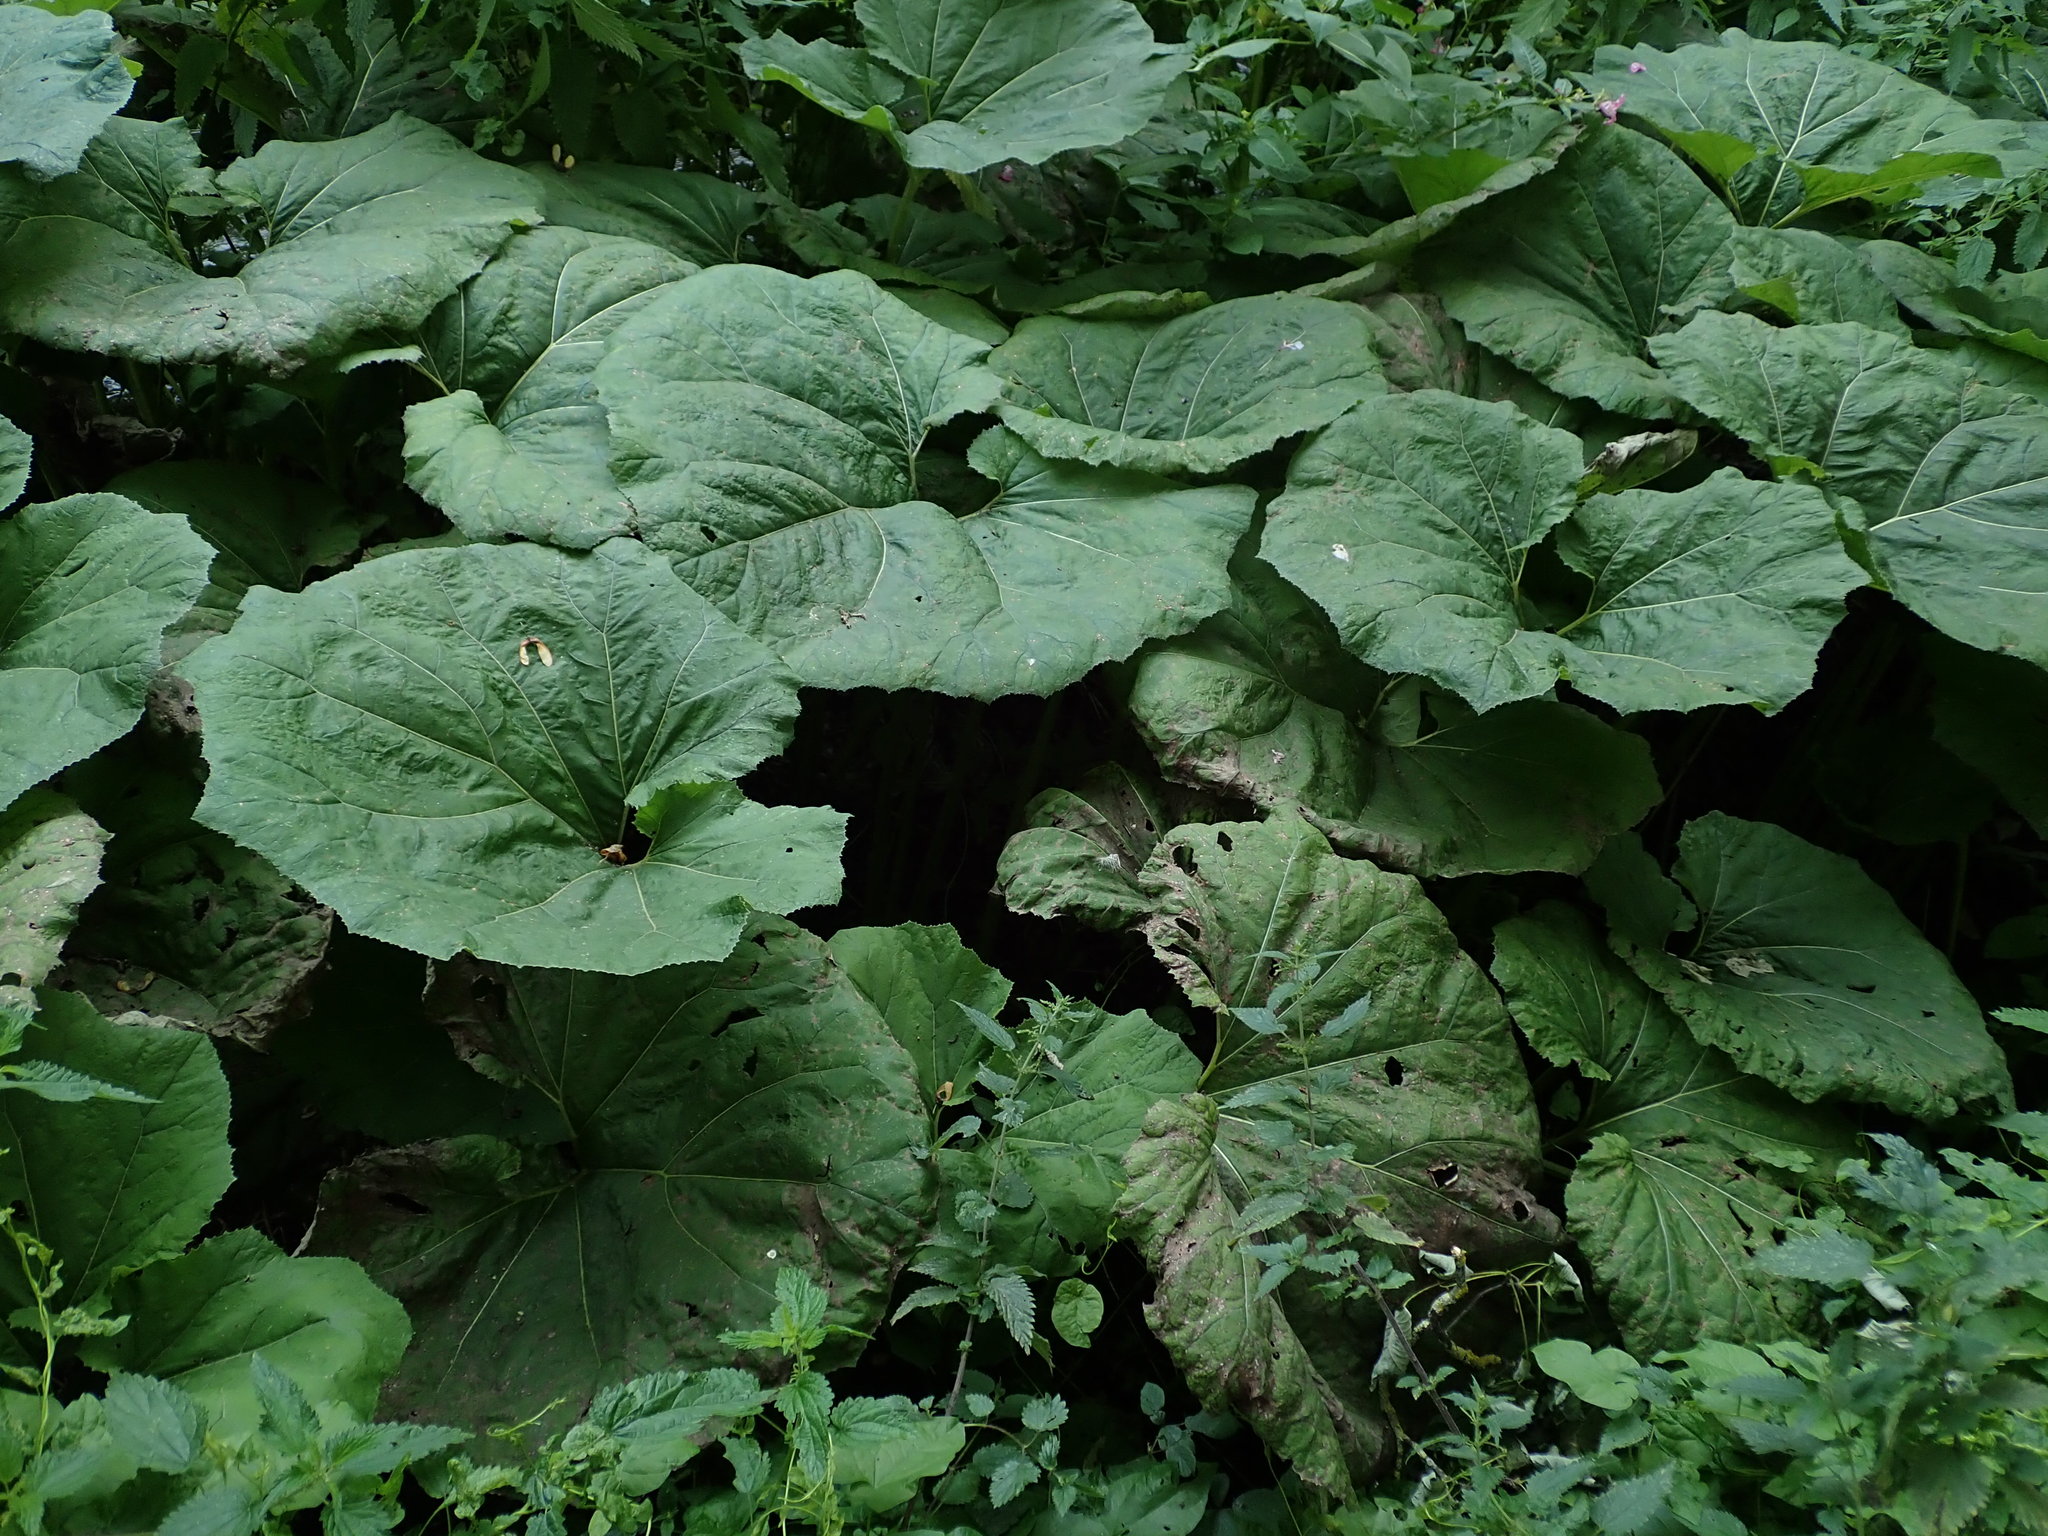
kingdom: Plantae
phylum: Tracheophyta
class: Magnoliopsida
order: Asterales
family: Asteraceae
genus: Petasites
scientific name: Petasites japonicus
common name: Giant butterbur
